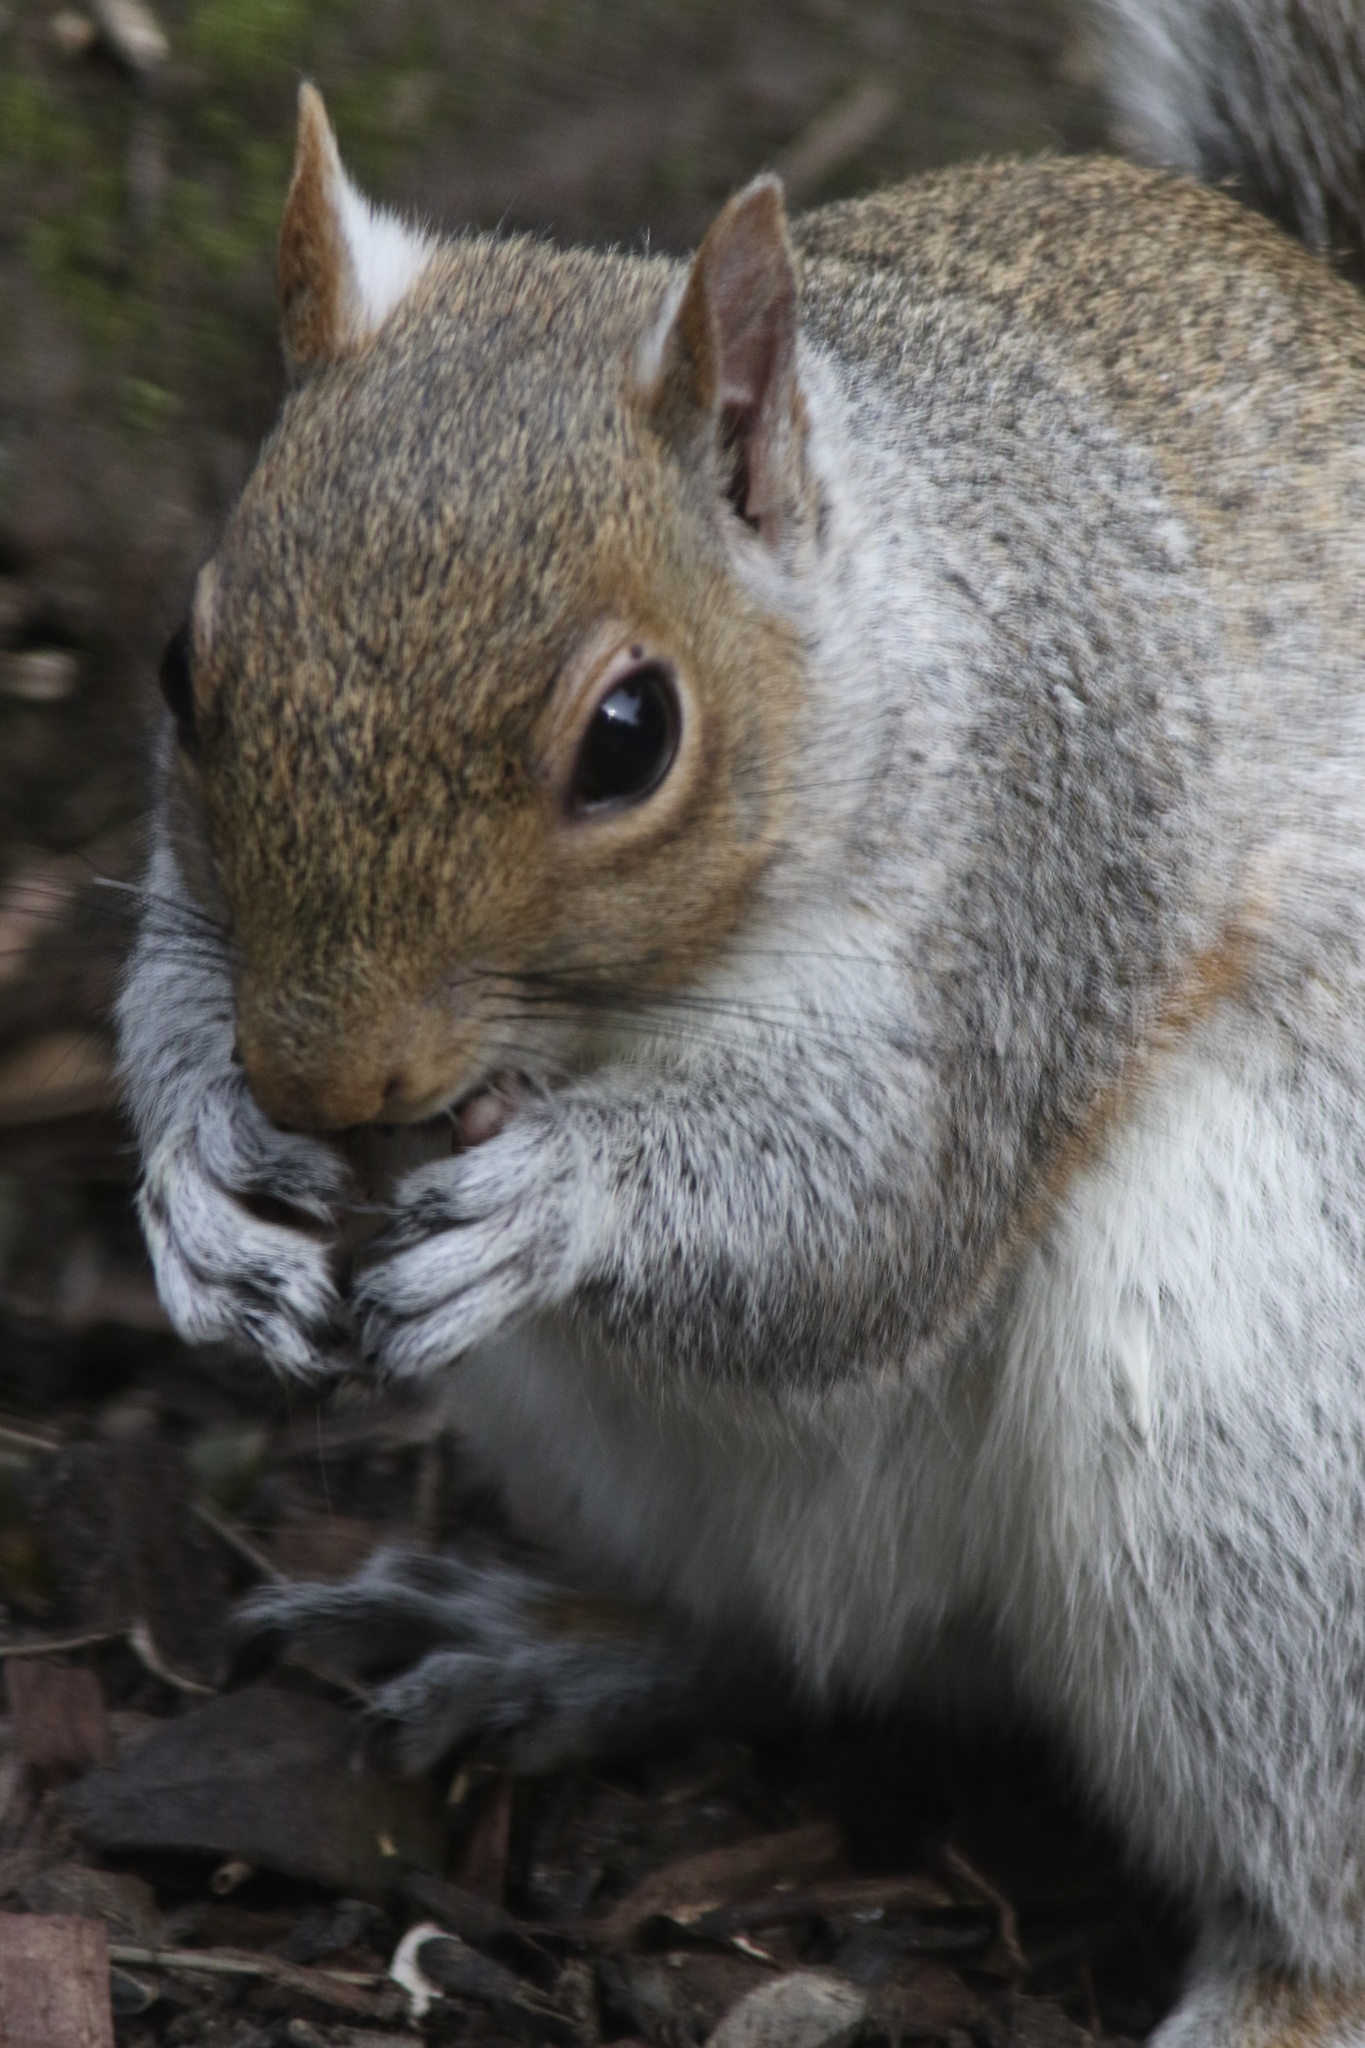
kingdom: Animalia
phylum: Chordata
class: Mammalia
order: Rodentia
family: Sciuridae
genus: Sciurus
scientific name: Sciurus carolinensis
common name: Eastern gray squirrel
